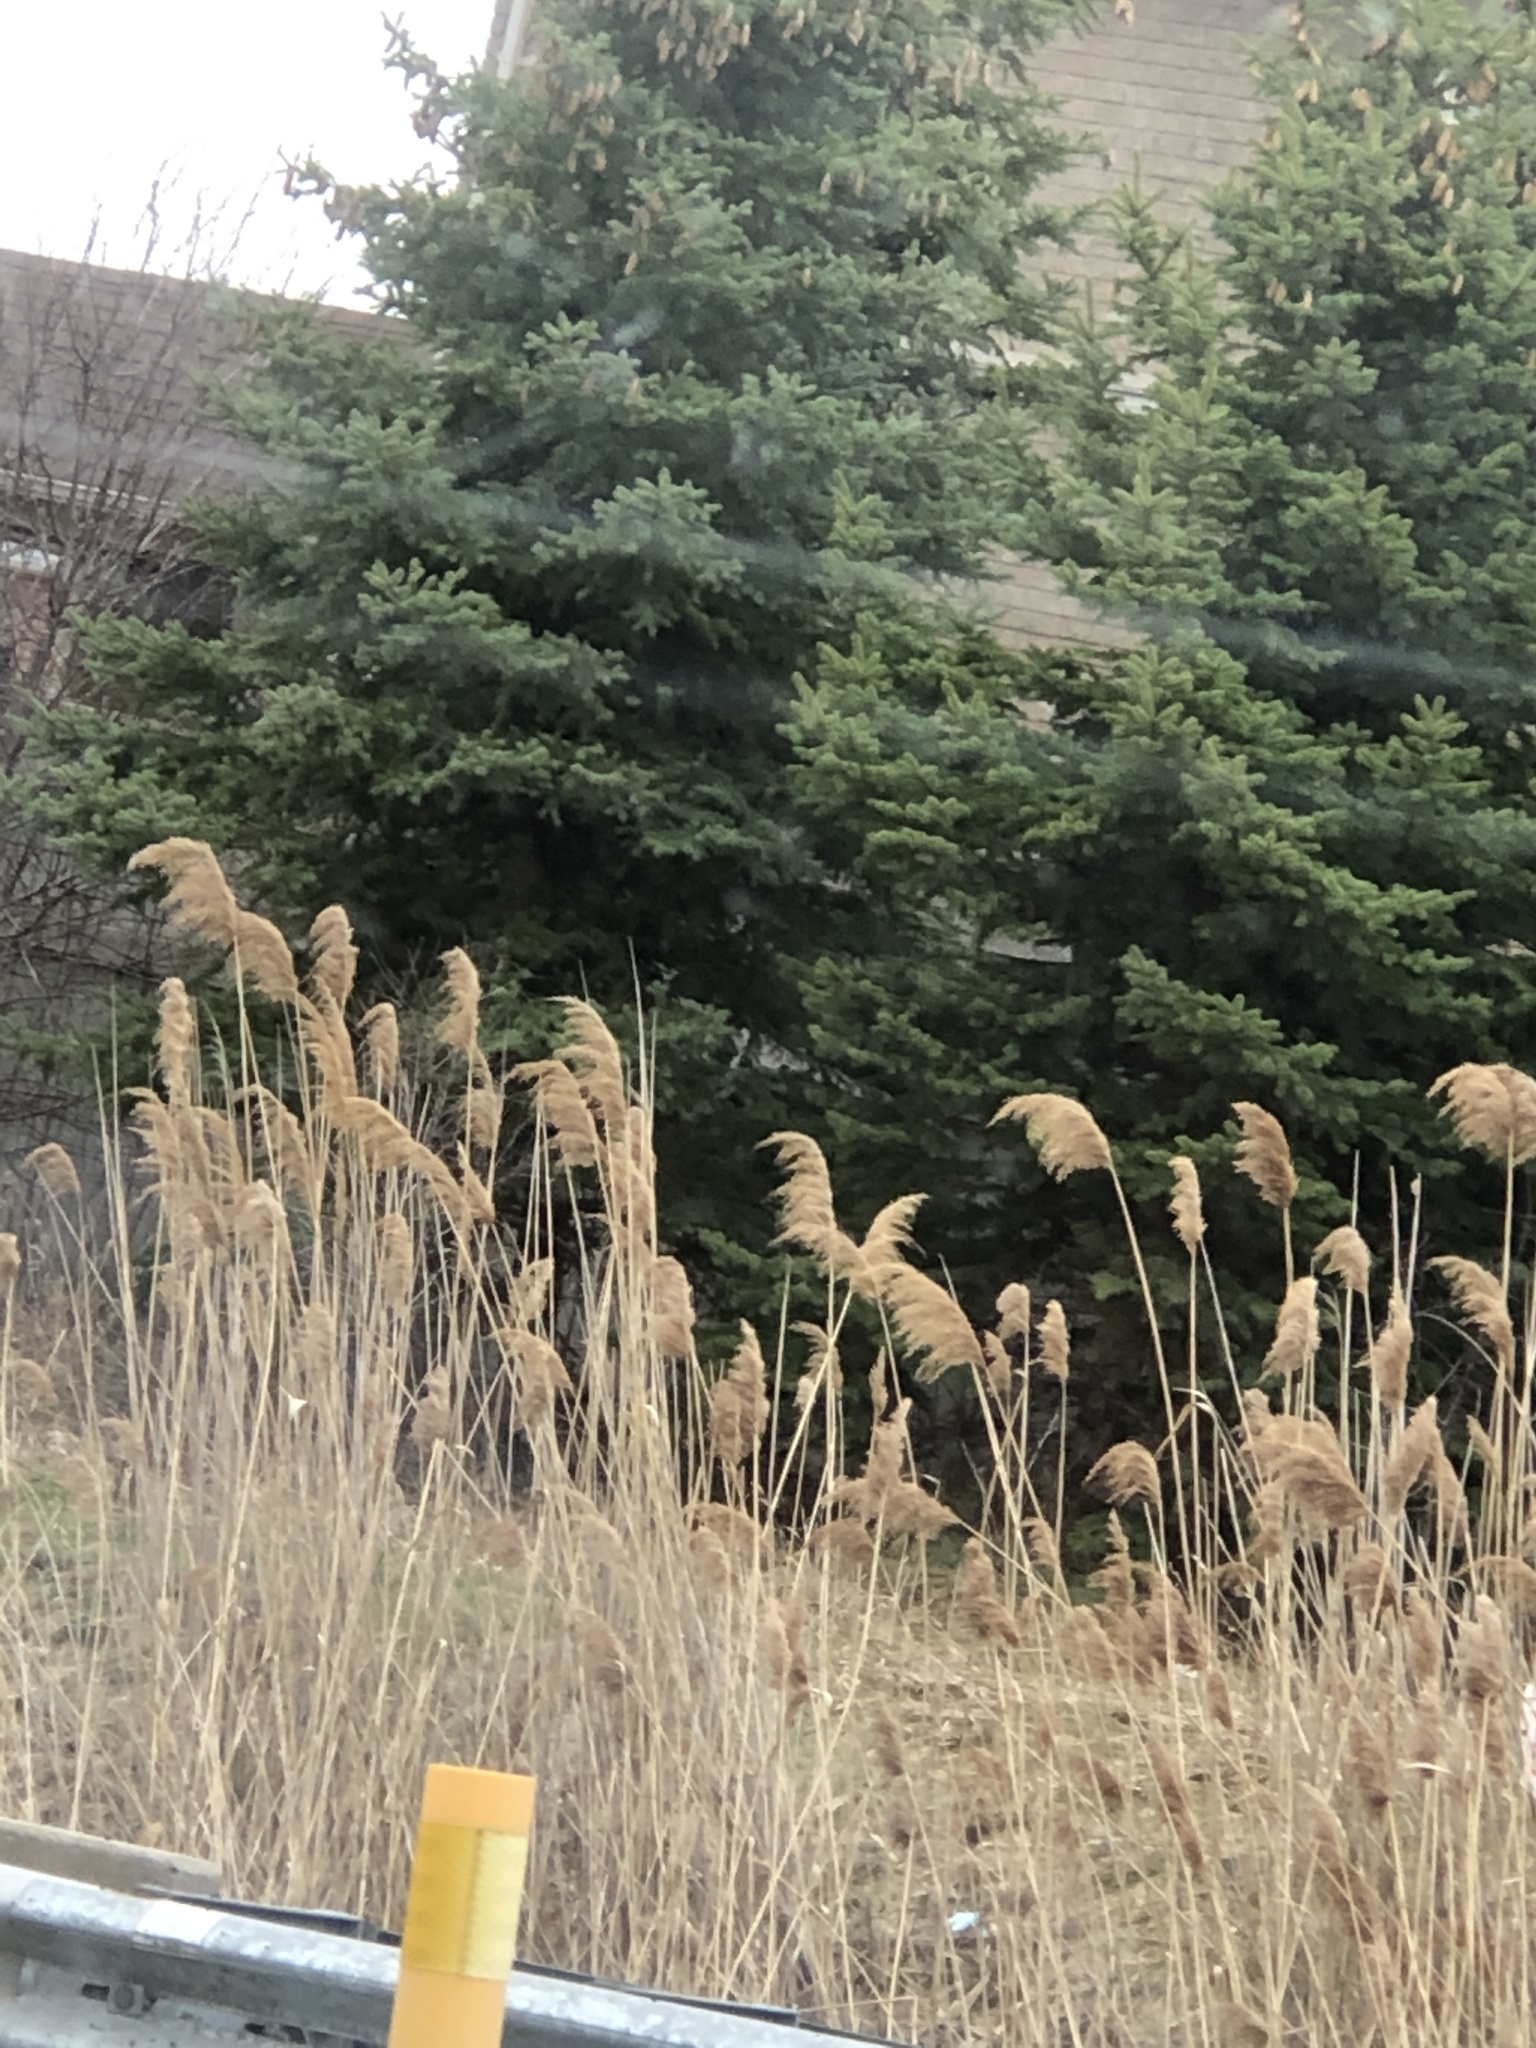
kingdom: Plantae
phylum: Tracheophyta
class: Liliopsida
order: Poales
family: Poaceae
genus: Phragmites
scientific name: Phragmites australis
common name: Common reed
